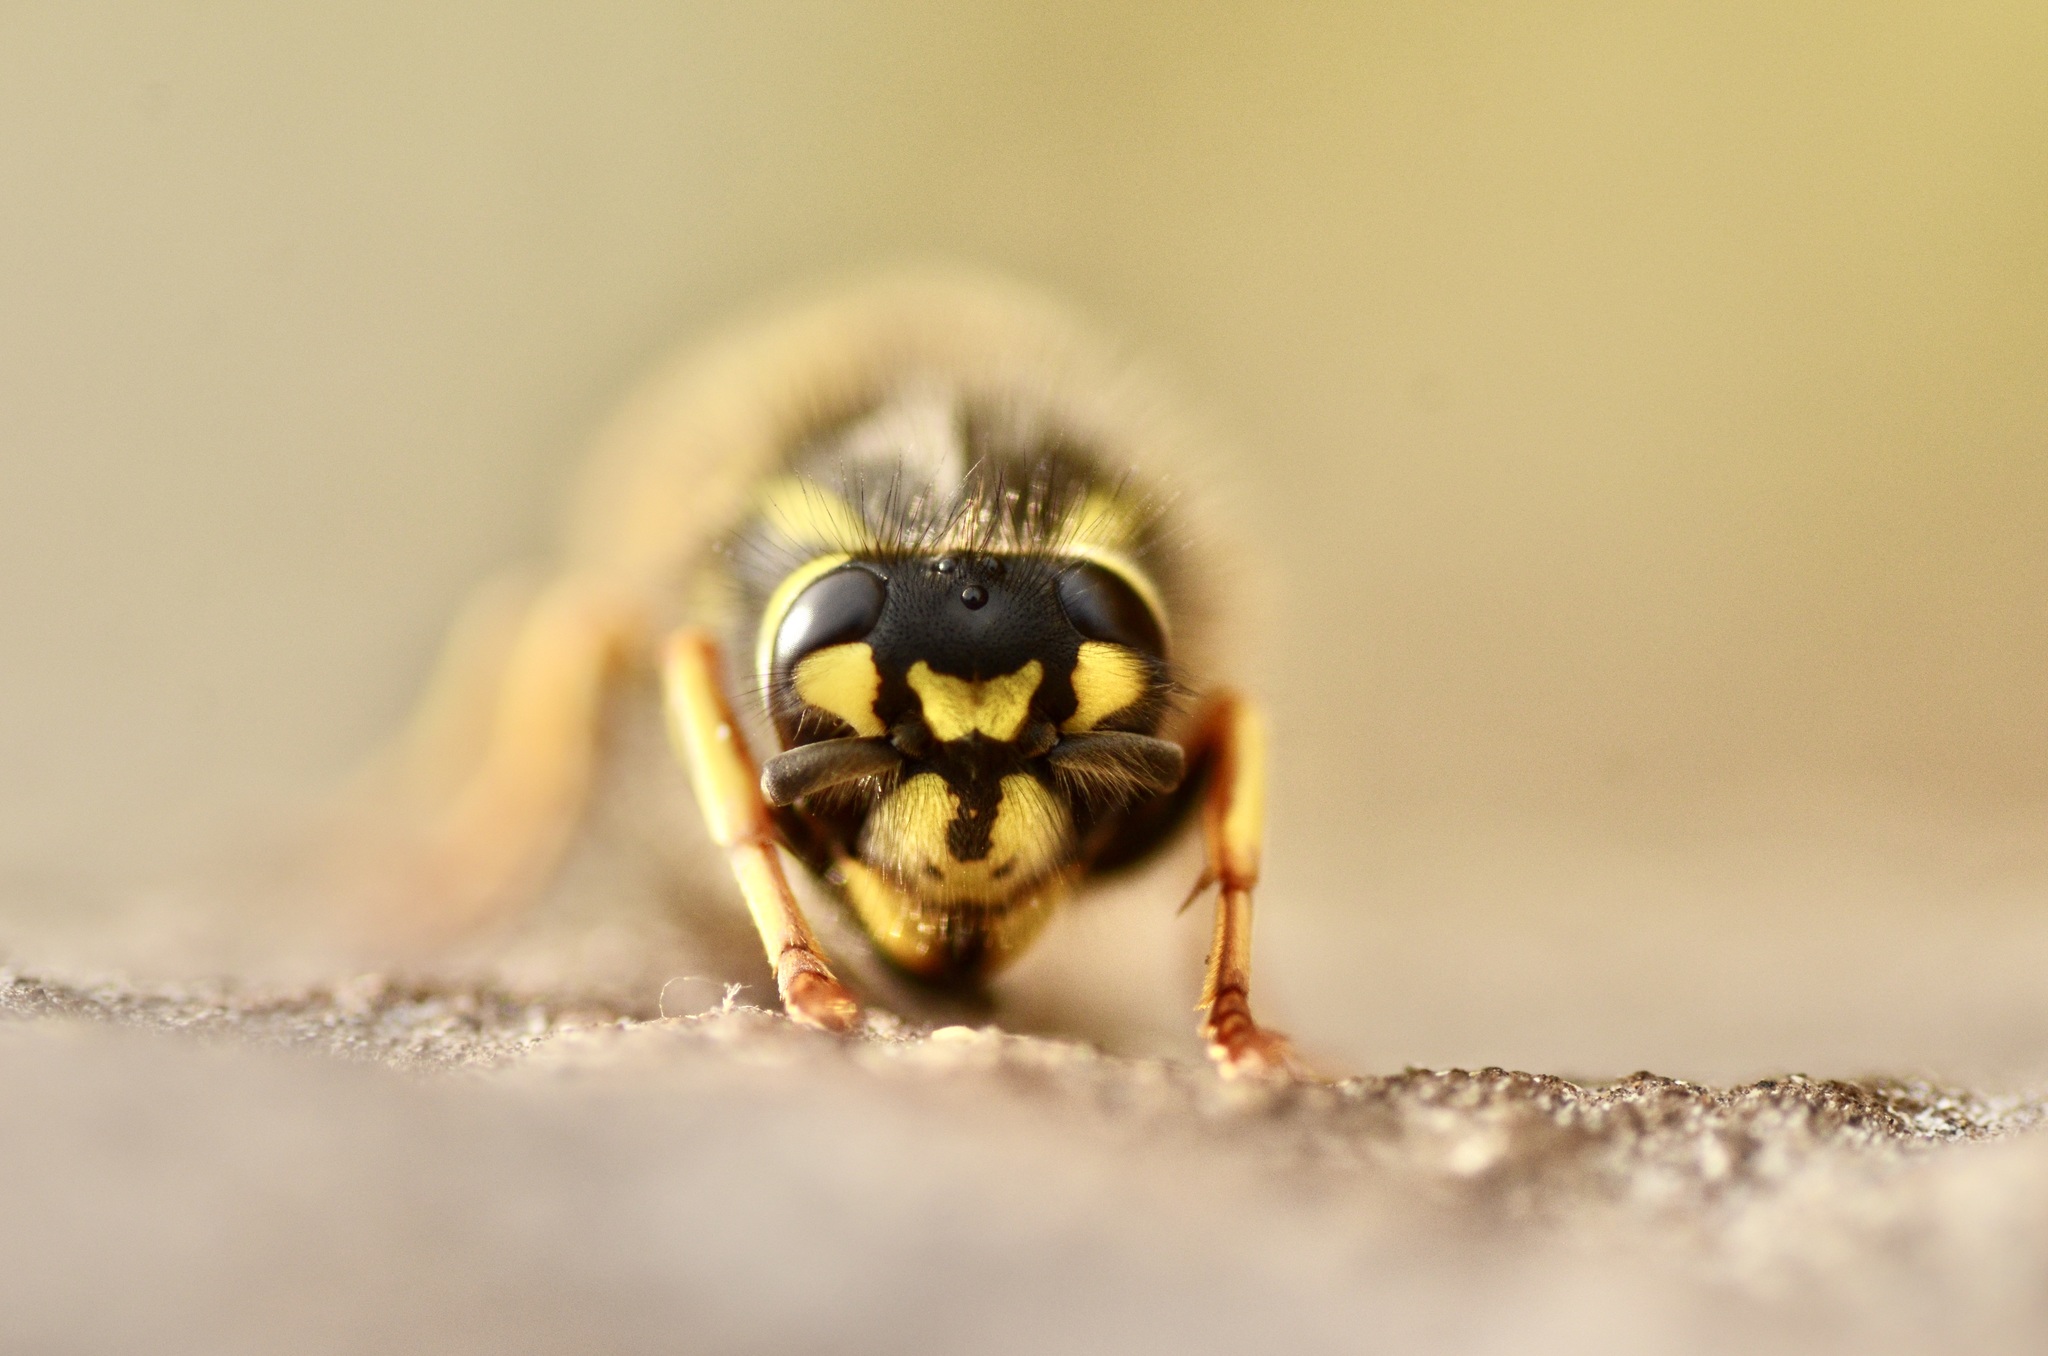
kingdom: Animalia
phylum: Arthropoda
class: Insecta
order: Hymenoptera
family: Vespidae
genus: Vespula
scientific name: Vespula germanica
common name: German wasp
